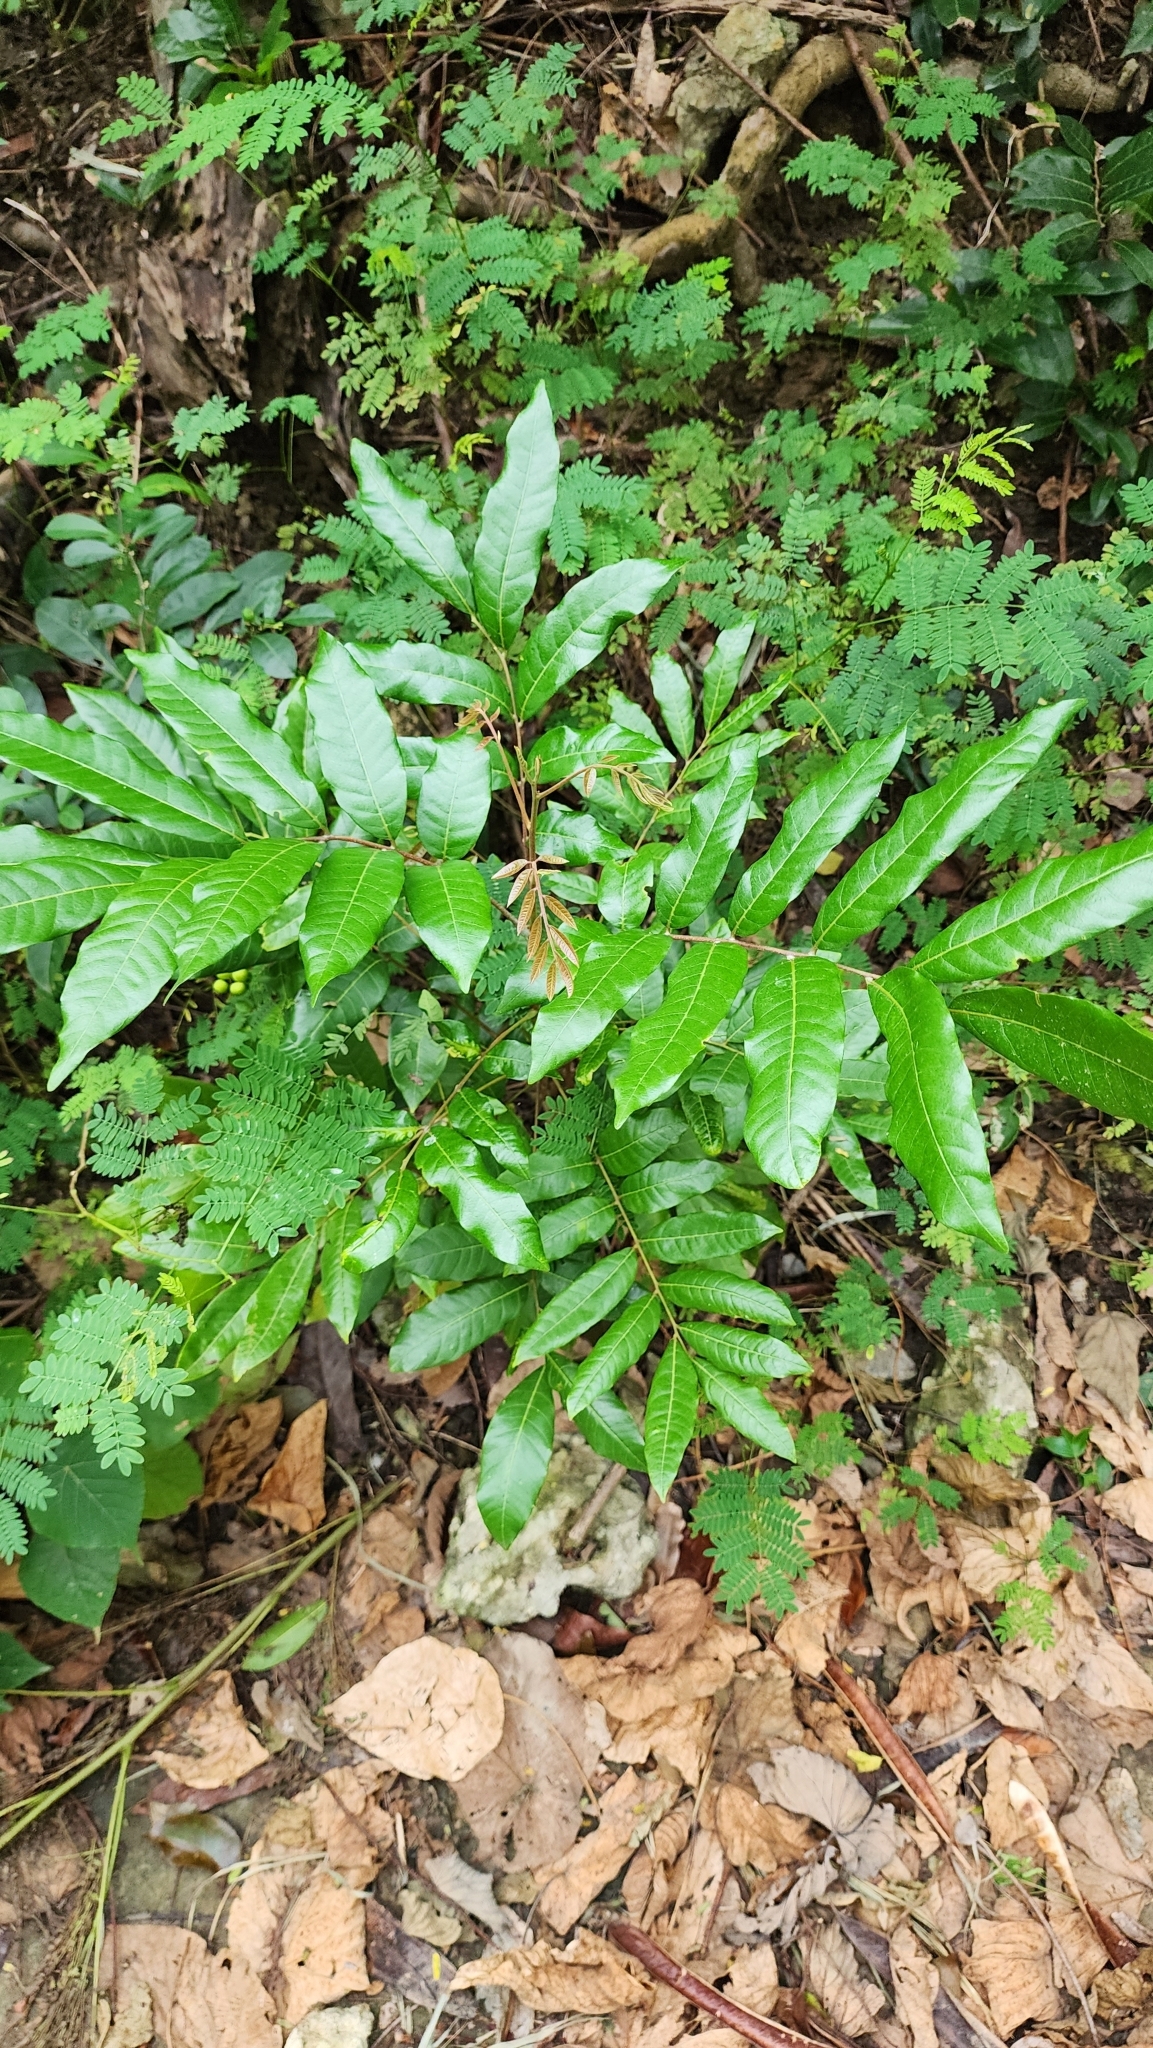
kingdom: Plantae
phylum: Tracheophyta
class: Magnoliopsida
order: Sapindales
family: Sapindaceae
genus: Dimocarpus
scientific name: Dimocarpus longan
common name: Longan
